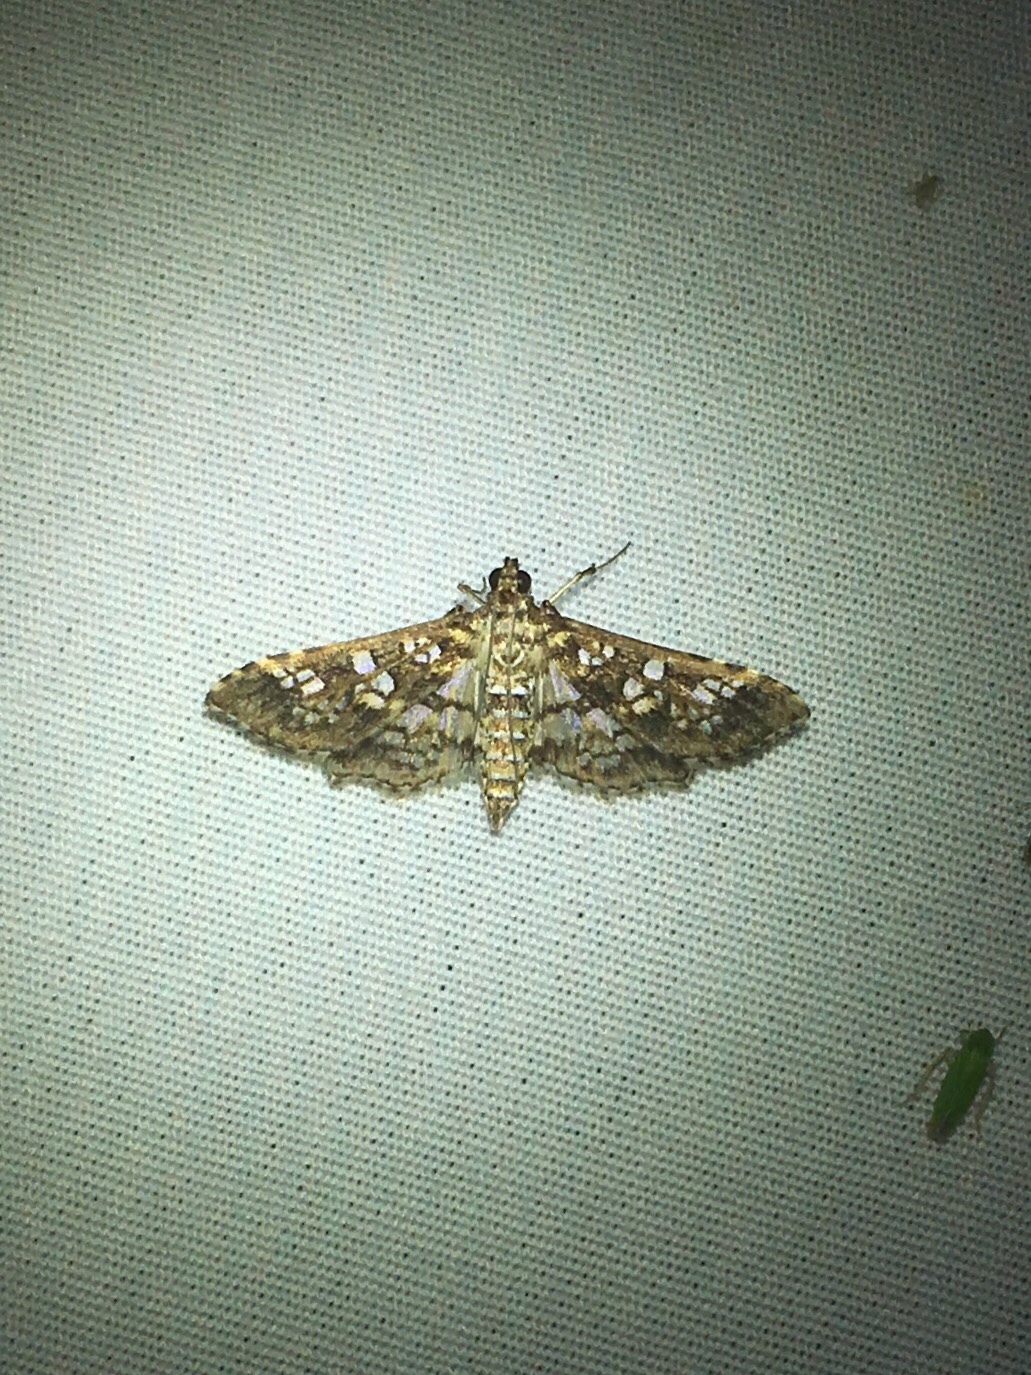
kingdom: Animalia
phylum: Arthropoda
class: Insecta
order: Lepidoptera
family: Crambidae
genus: Samea
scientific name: Samea ecclesialis
